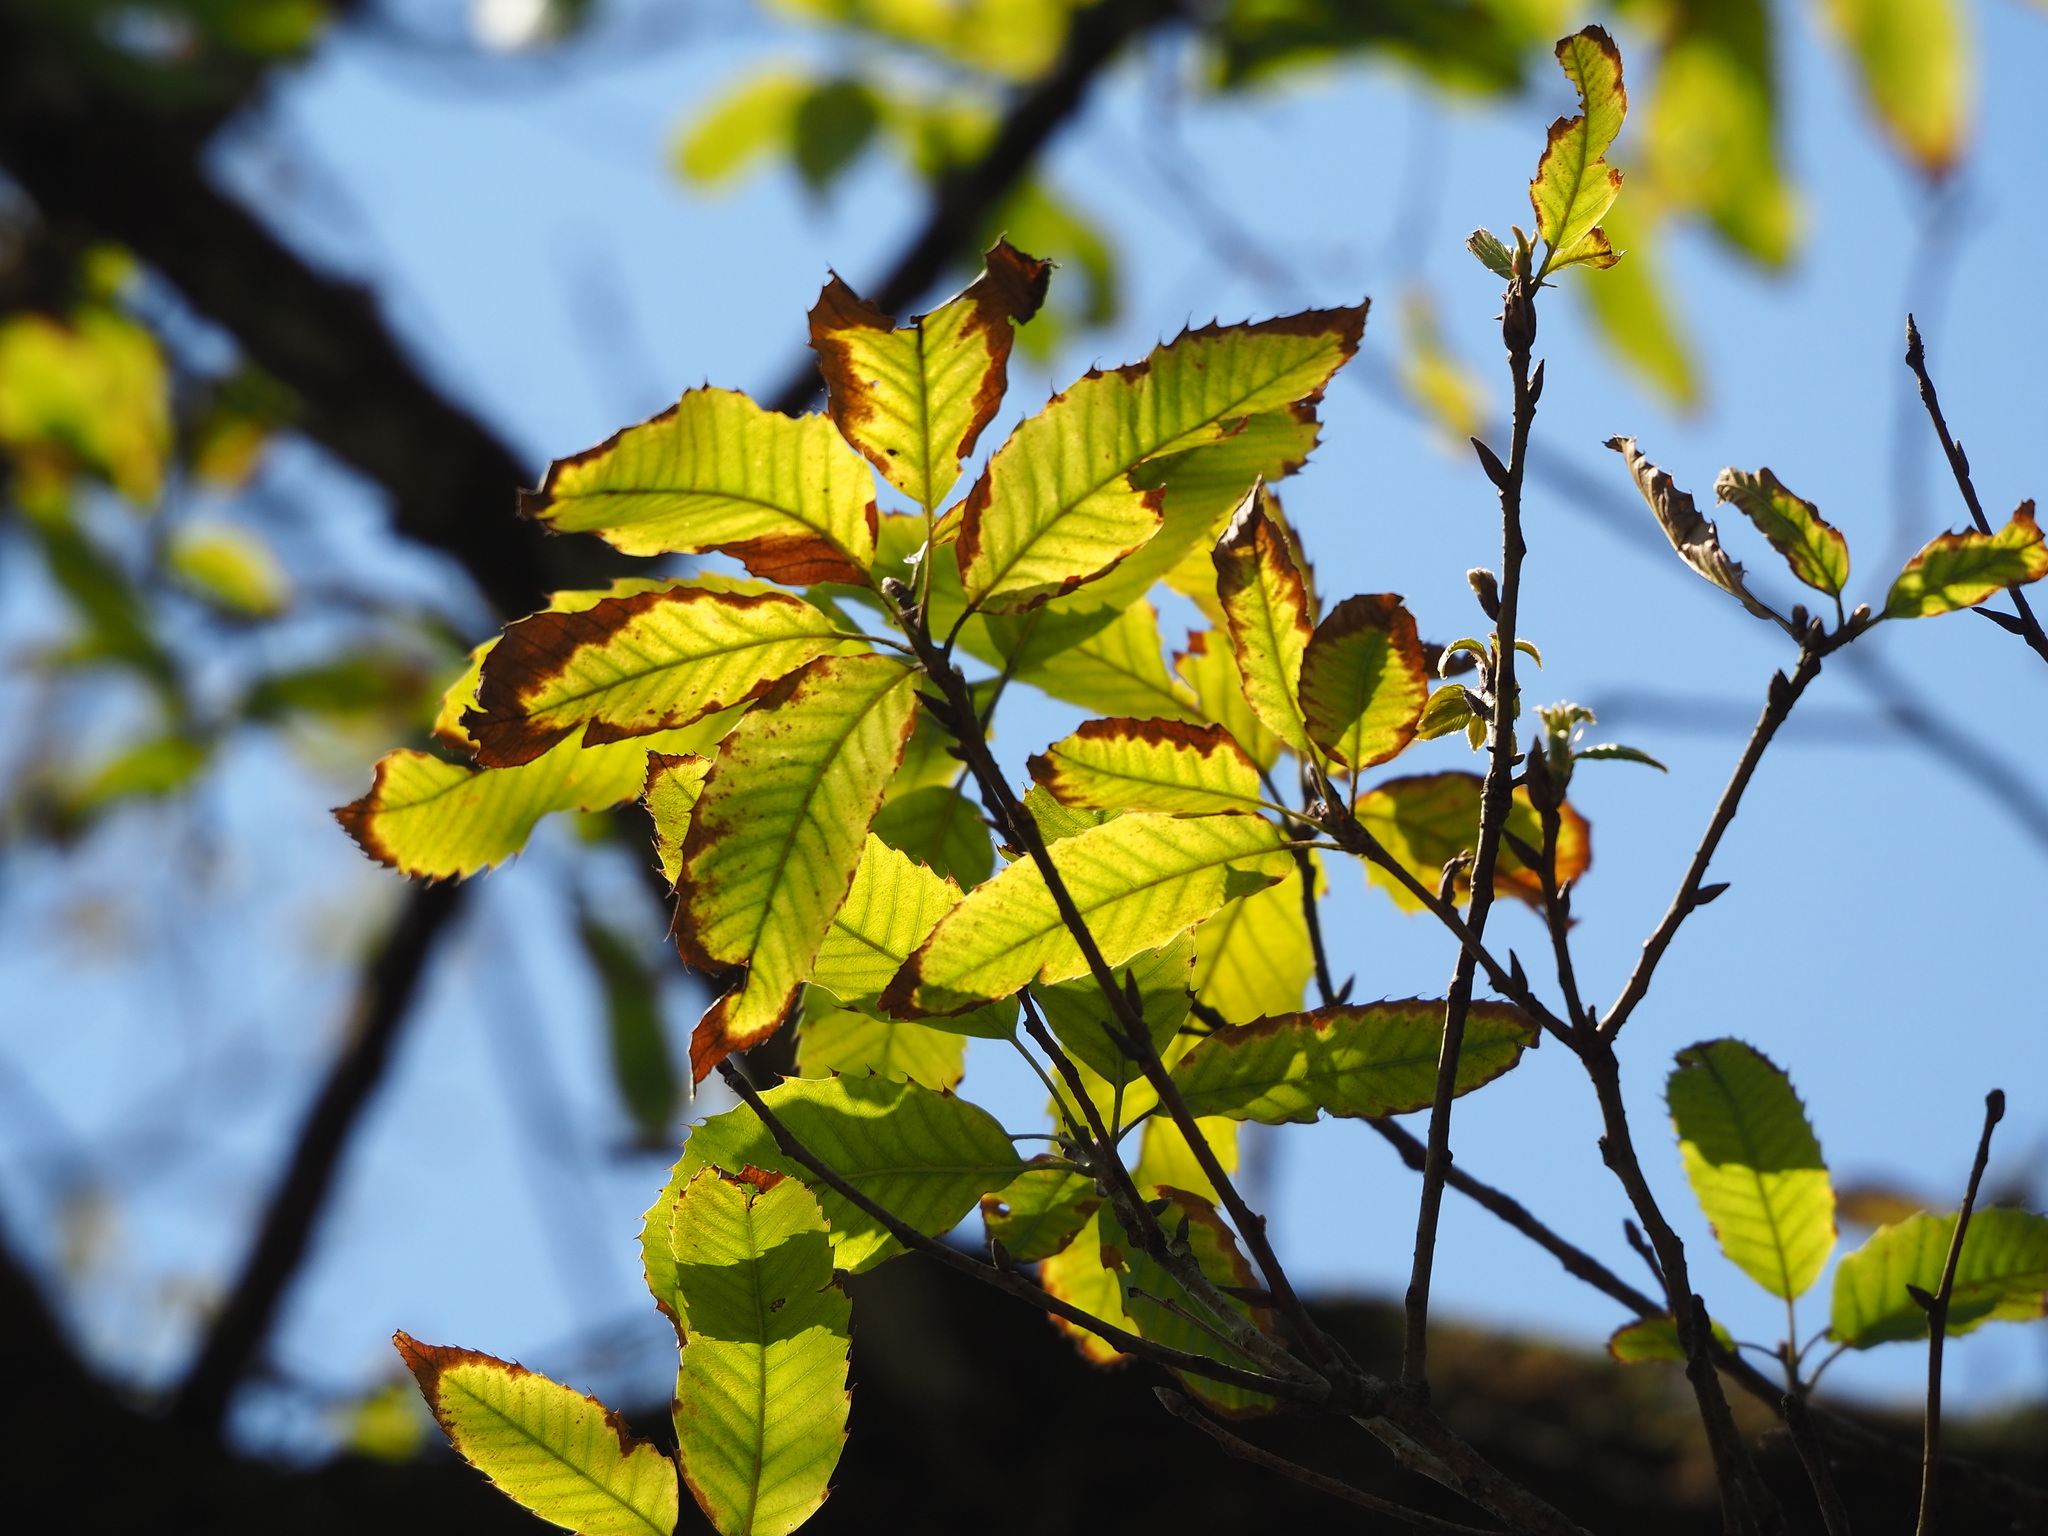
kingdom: Plantae
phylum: Tracheophyta
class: Magnoliopsida
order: Fagales
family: Fagaceae
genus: Quercus
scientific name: Quercus variabilis
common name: Chinese cork oak
